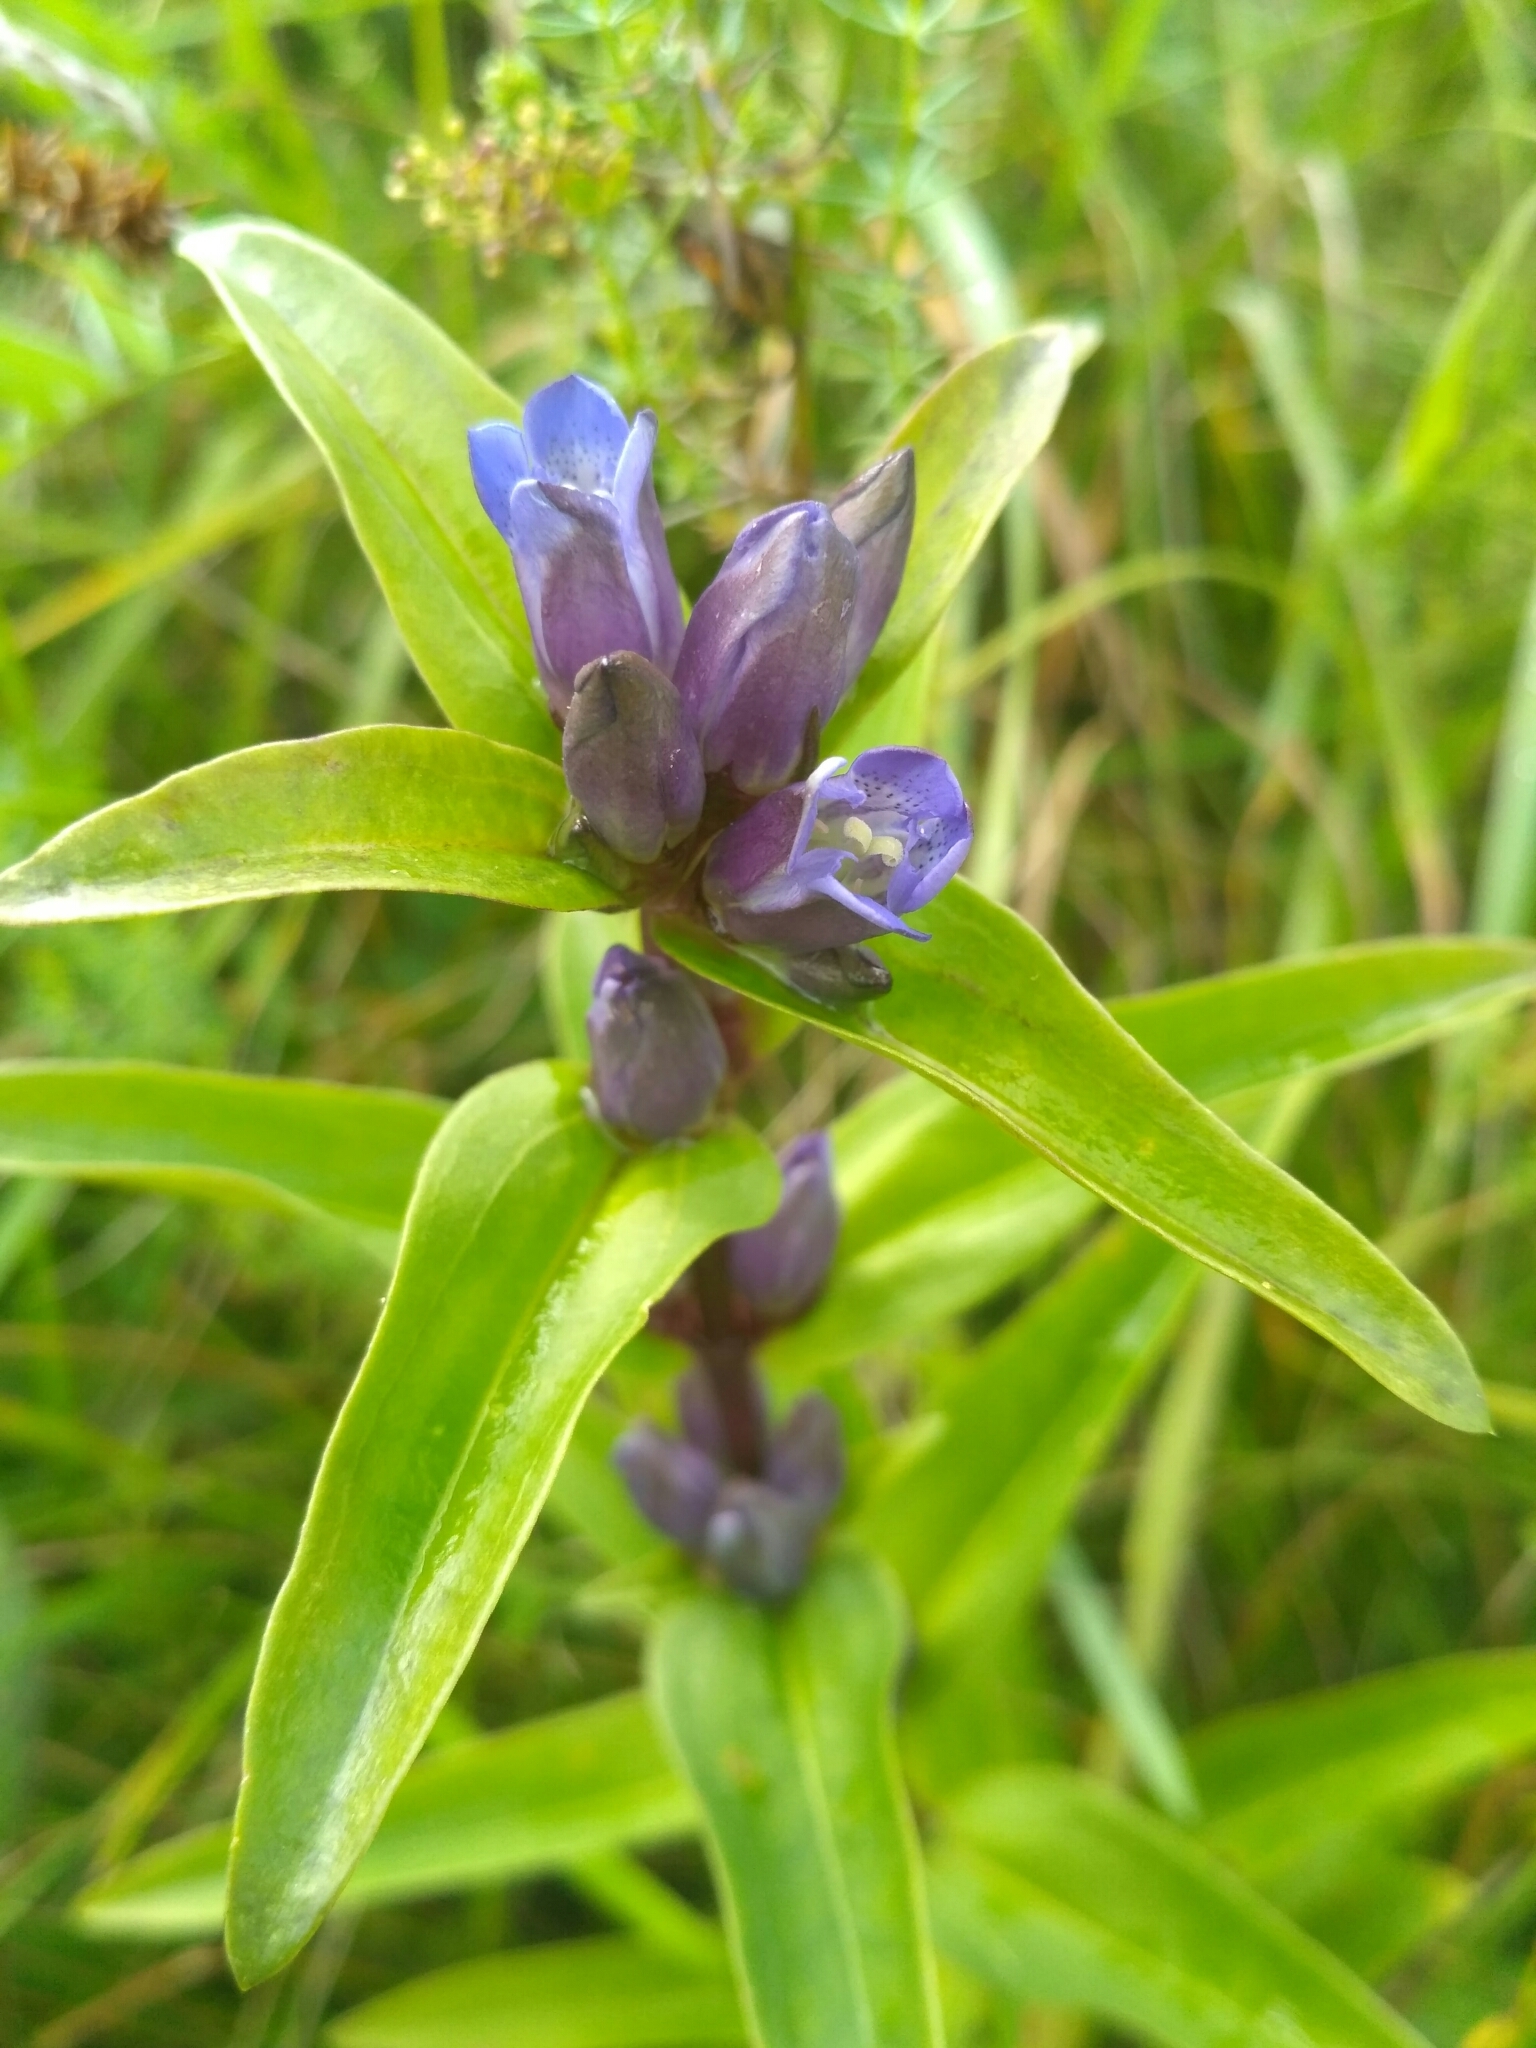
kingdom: Plantae
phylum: Tracheophyta
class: Magnoliopsida
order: Gentianales
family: Gentianaceae
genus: Gentiana
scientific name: Gentiana cruciata
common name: Cross gentian
